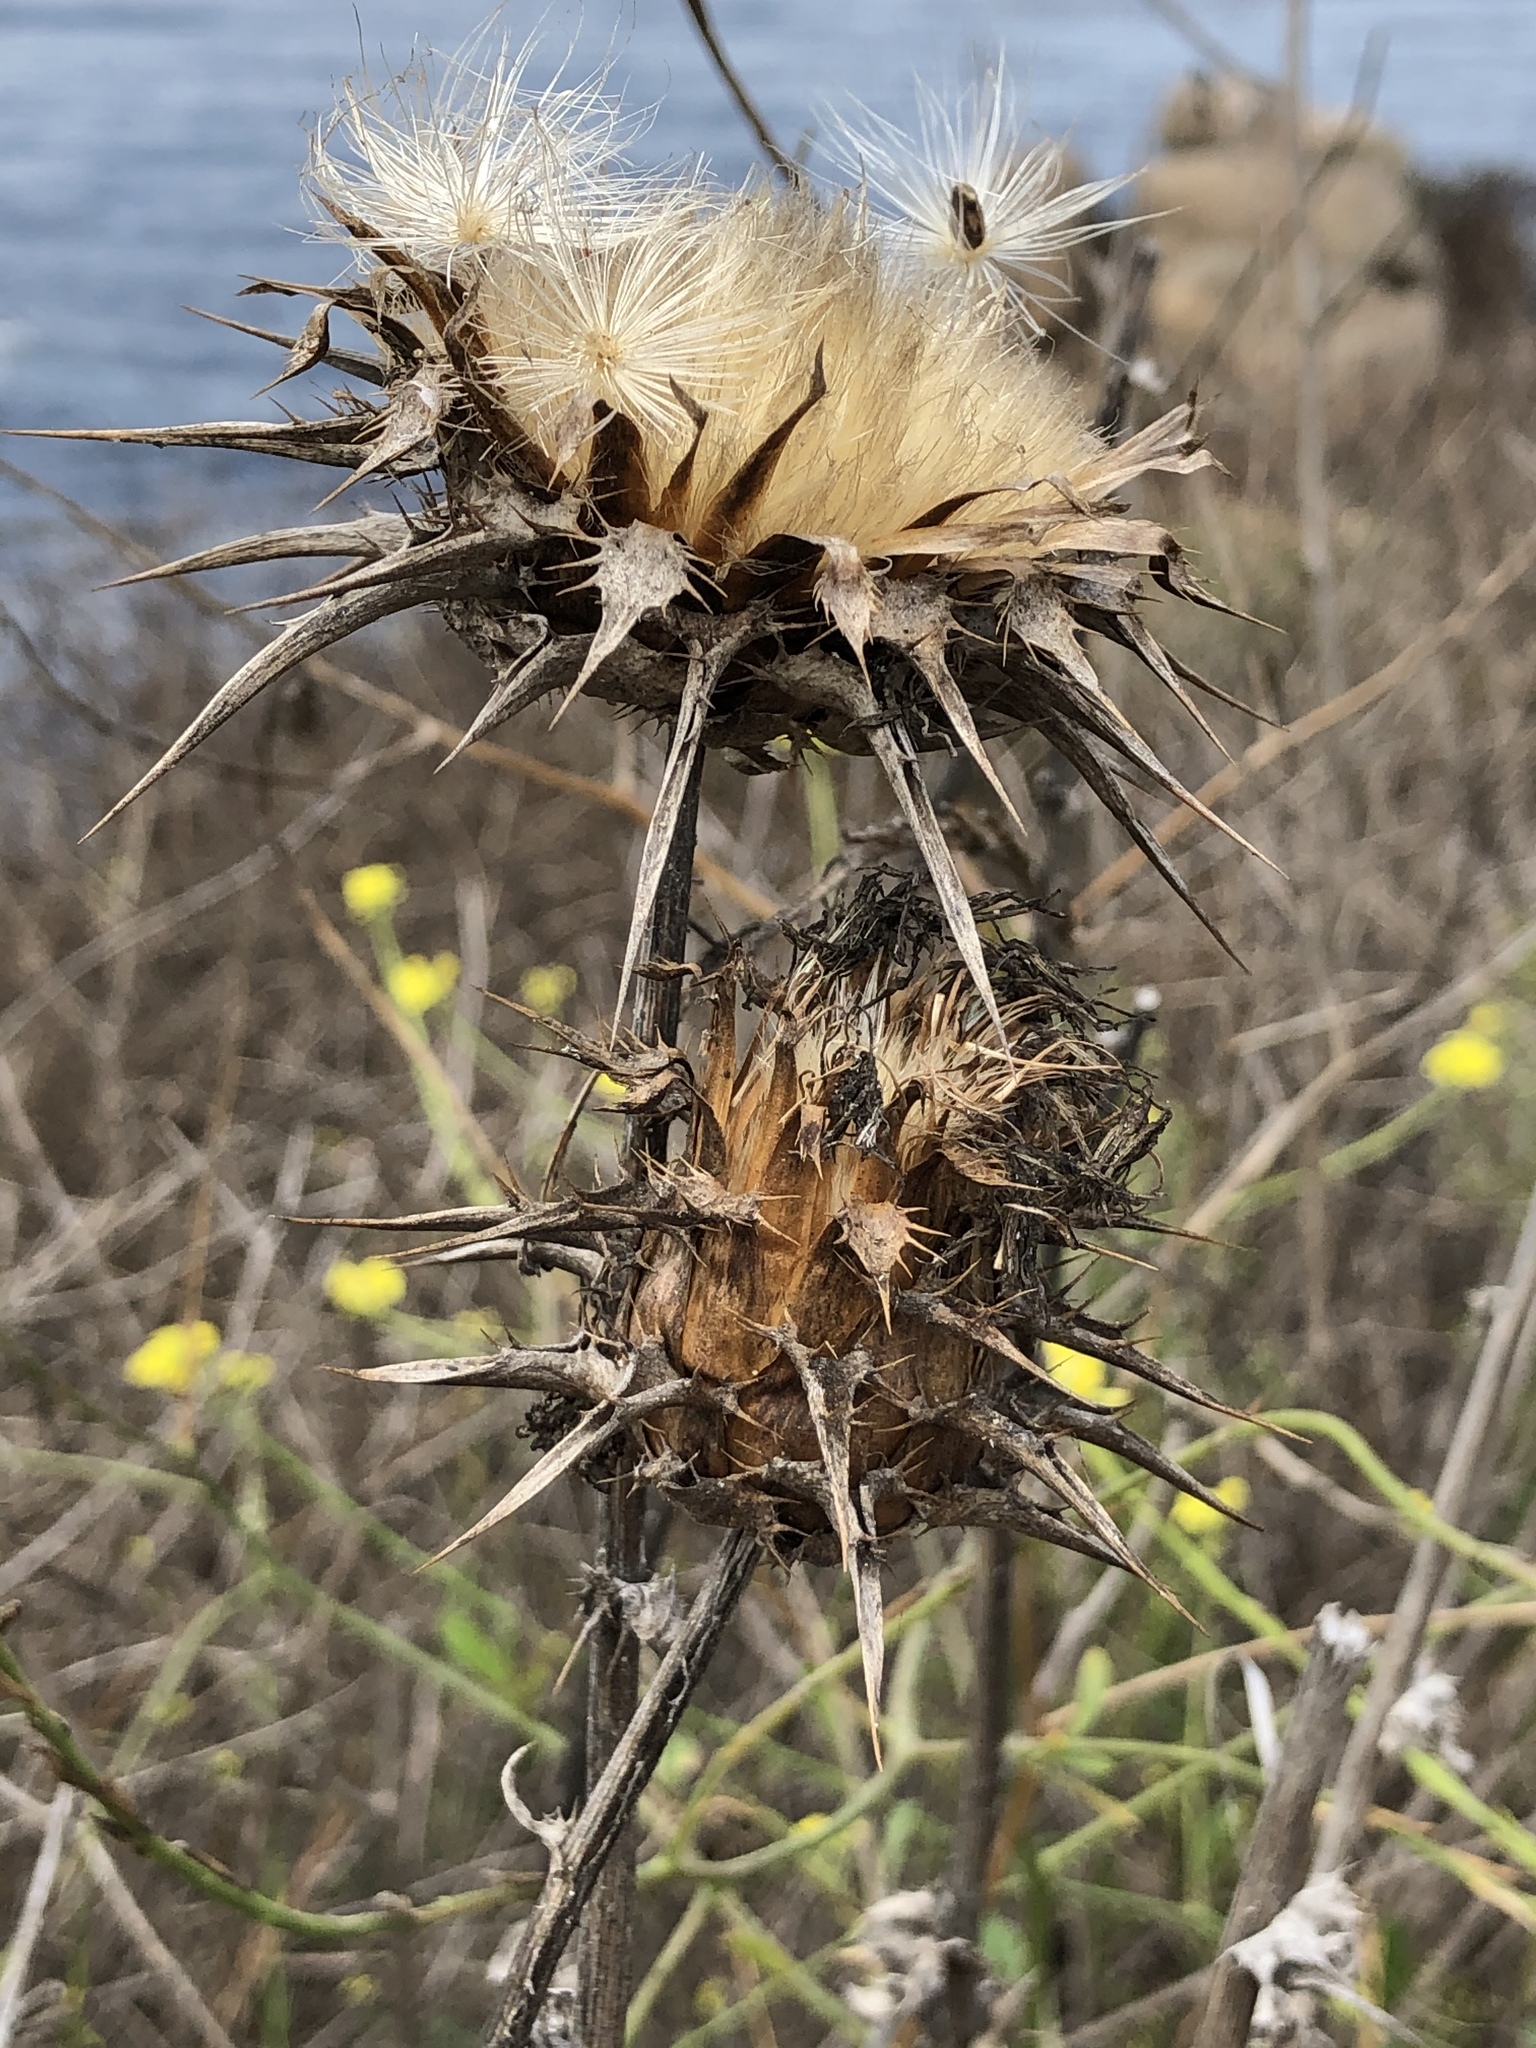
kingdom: Plantae
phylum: Tracheophyta
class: Magnoliopsida
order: Asterales
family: Asteraceae
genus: Silybum
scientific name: Silybum marianum
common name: Milk thistle
